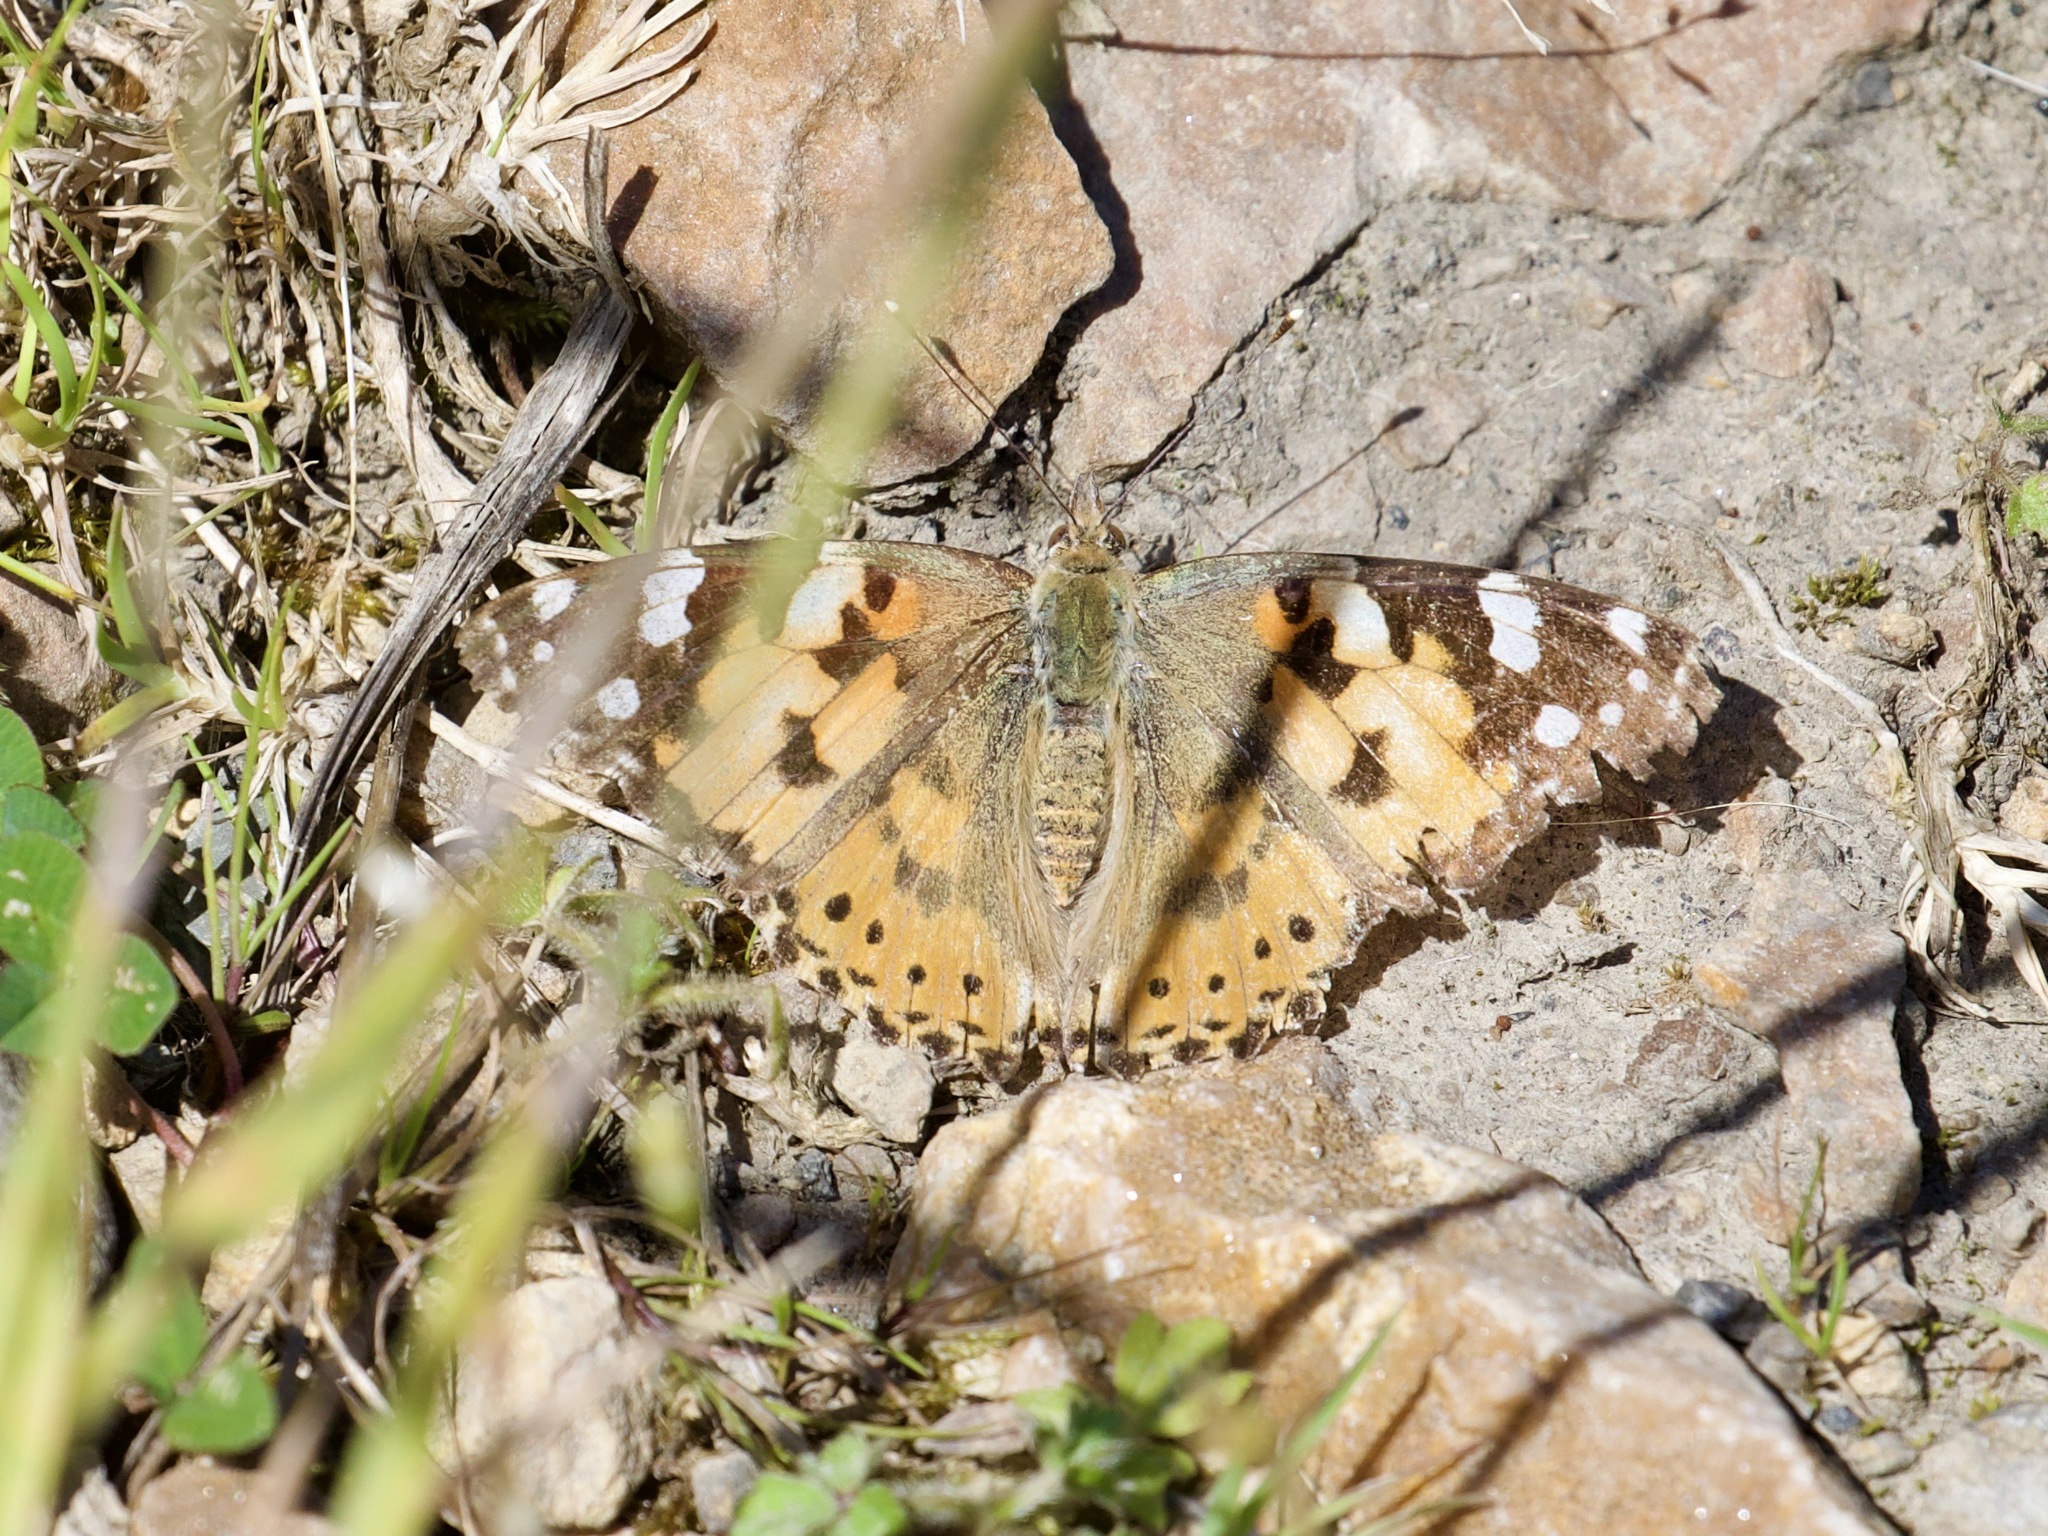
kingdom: Animalia
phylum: Arthropoda
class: Insecta
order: Lepidoptera
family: Nymphalidae
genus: Vanessa
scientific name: Vanessa cardui
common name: Painted lady
